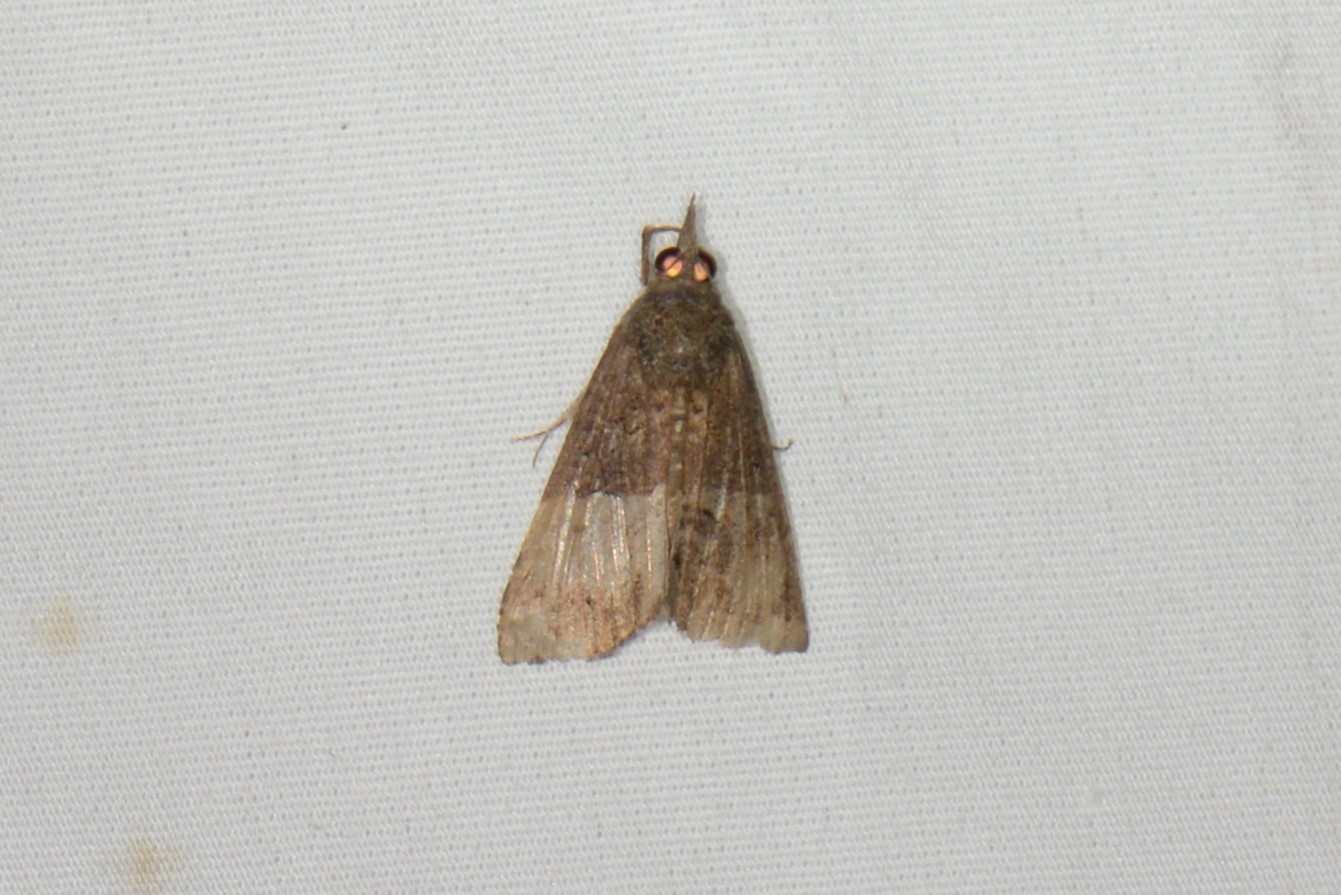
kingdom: Animalia
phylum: Arthropoda
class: Insecta
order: Lepidoptera
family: Erebidae
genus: Hypena
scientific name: Hypena scabra
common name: Green cloverworm
